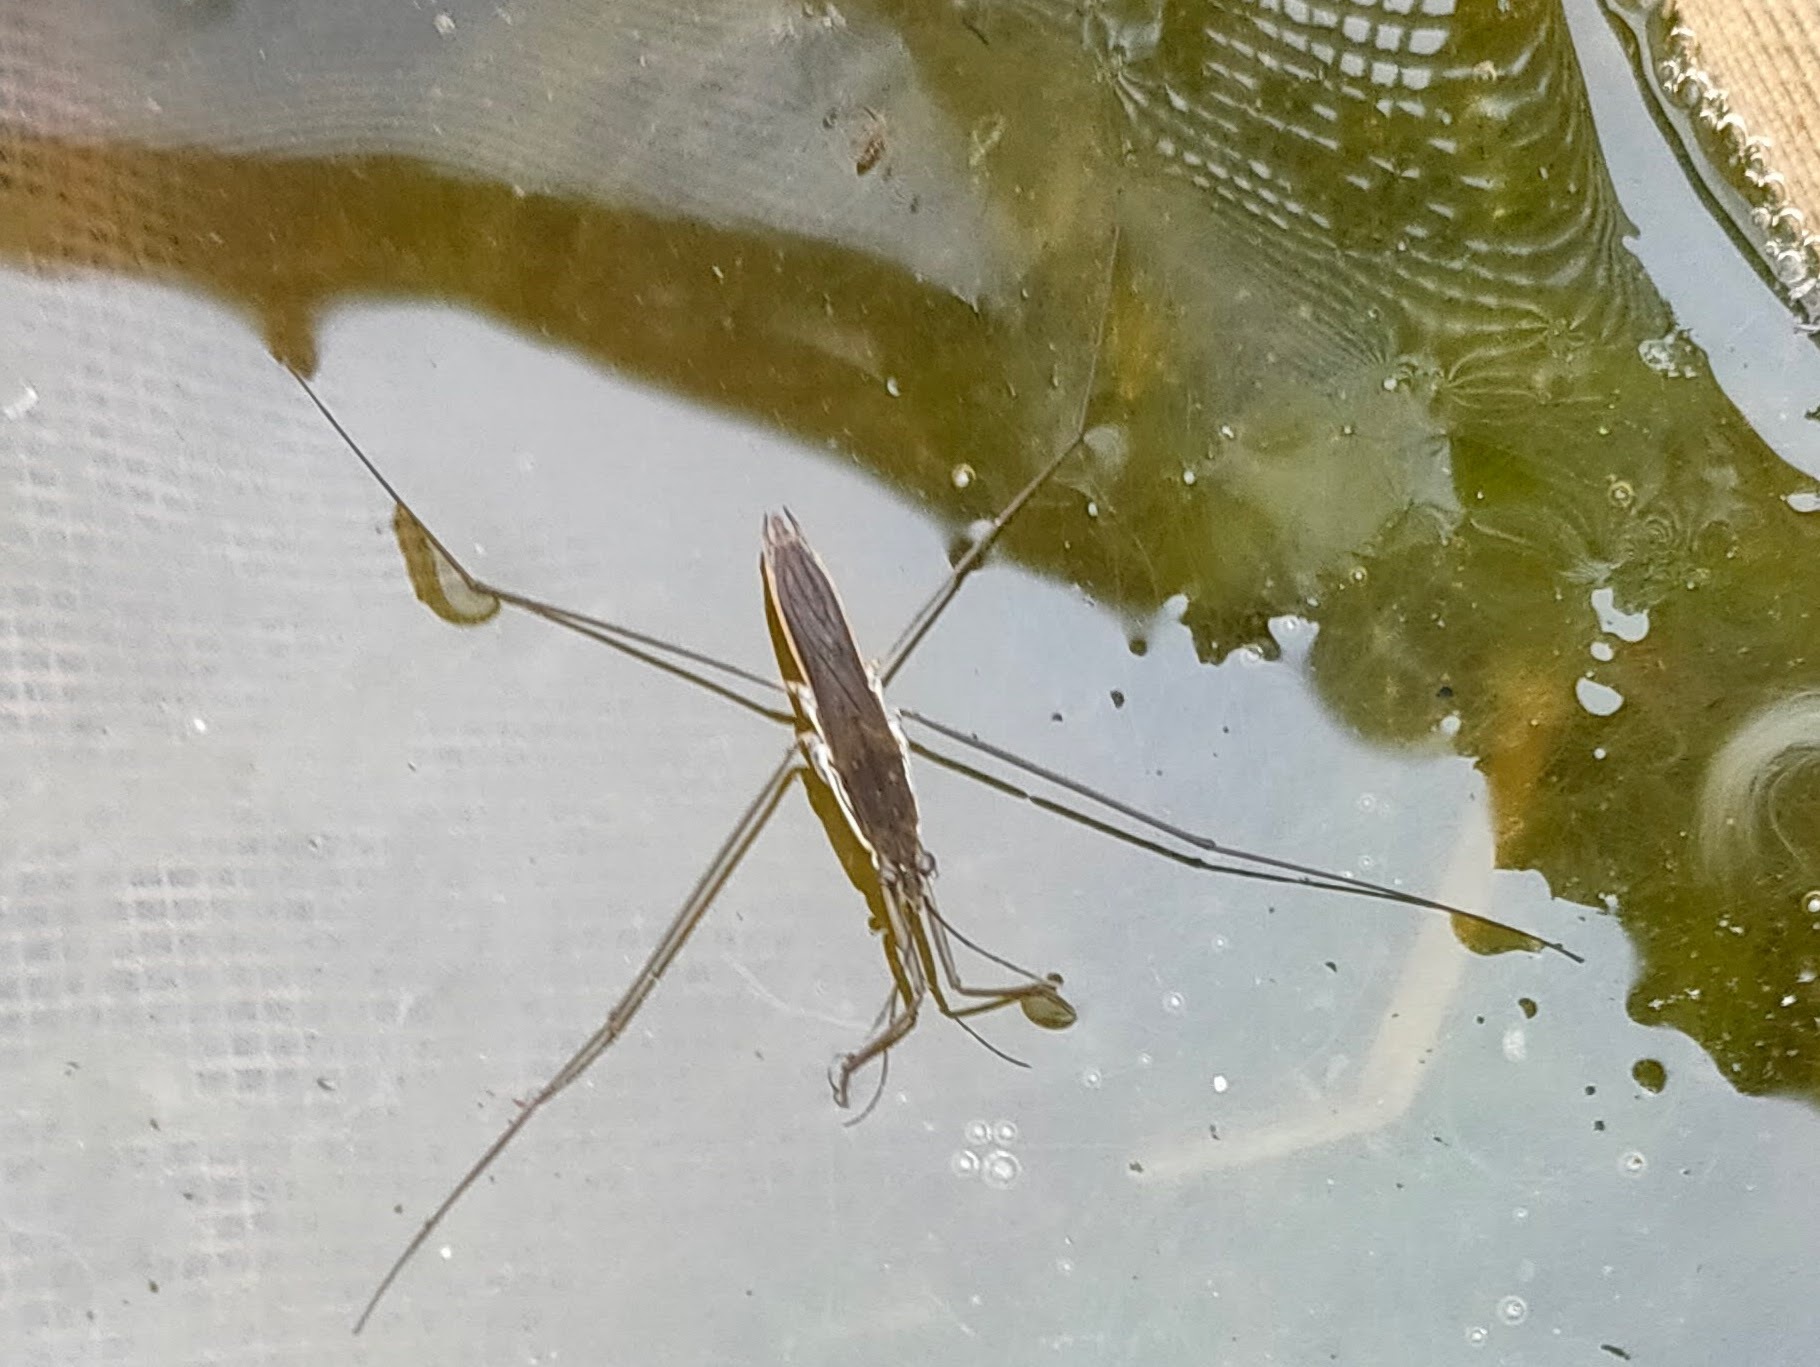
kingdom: Animalia
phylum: Arthropoda
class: Insecta
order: Hemiptera
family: Gerridae
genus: Aquarius
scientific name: Aquarius paludum
